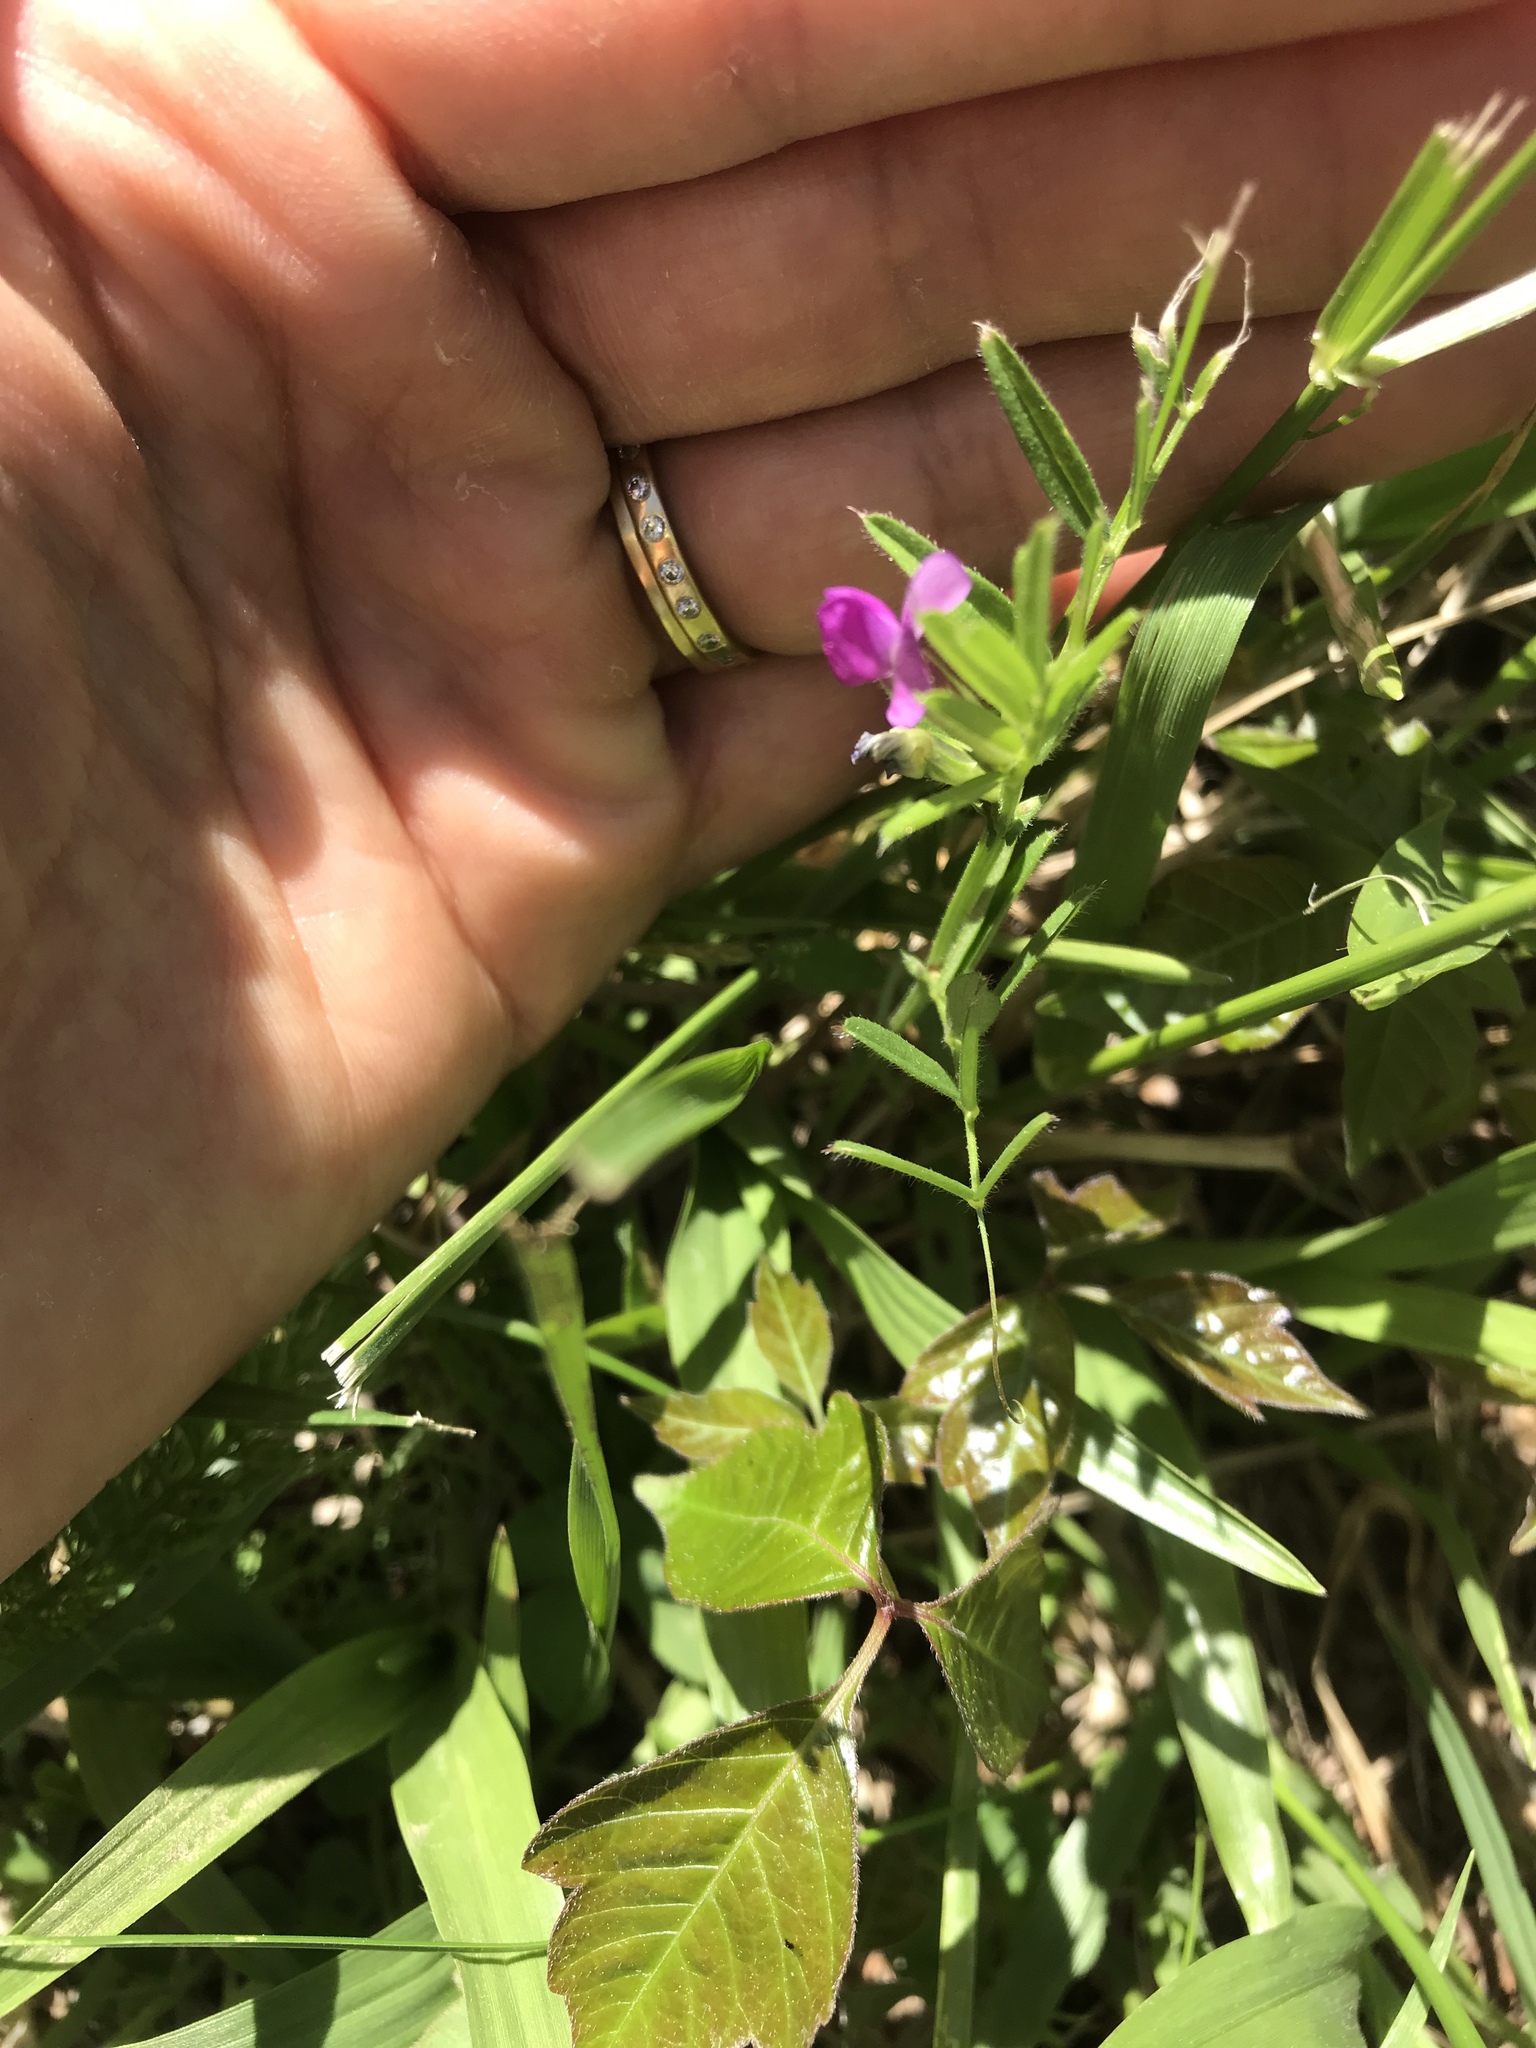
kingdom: Plantae
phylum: Tracheophyta
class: Magnoliopsida
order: Fabales
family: Fabaceae
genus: Vicia
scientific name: Vicia sativa
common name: Garden vetch
